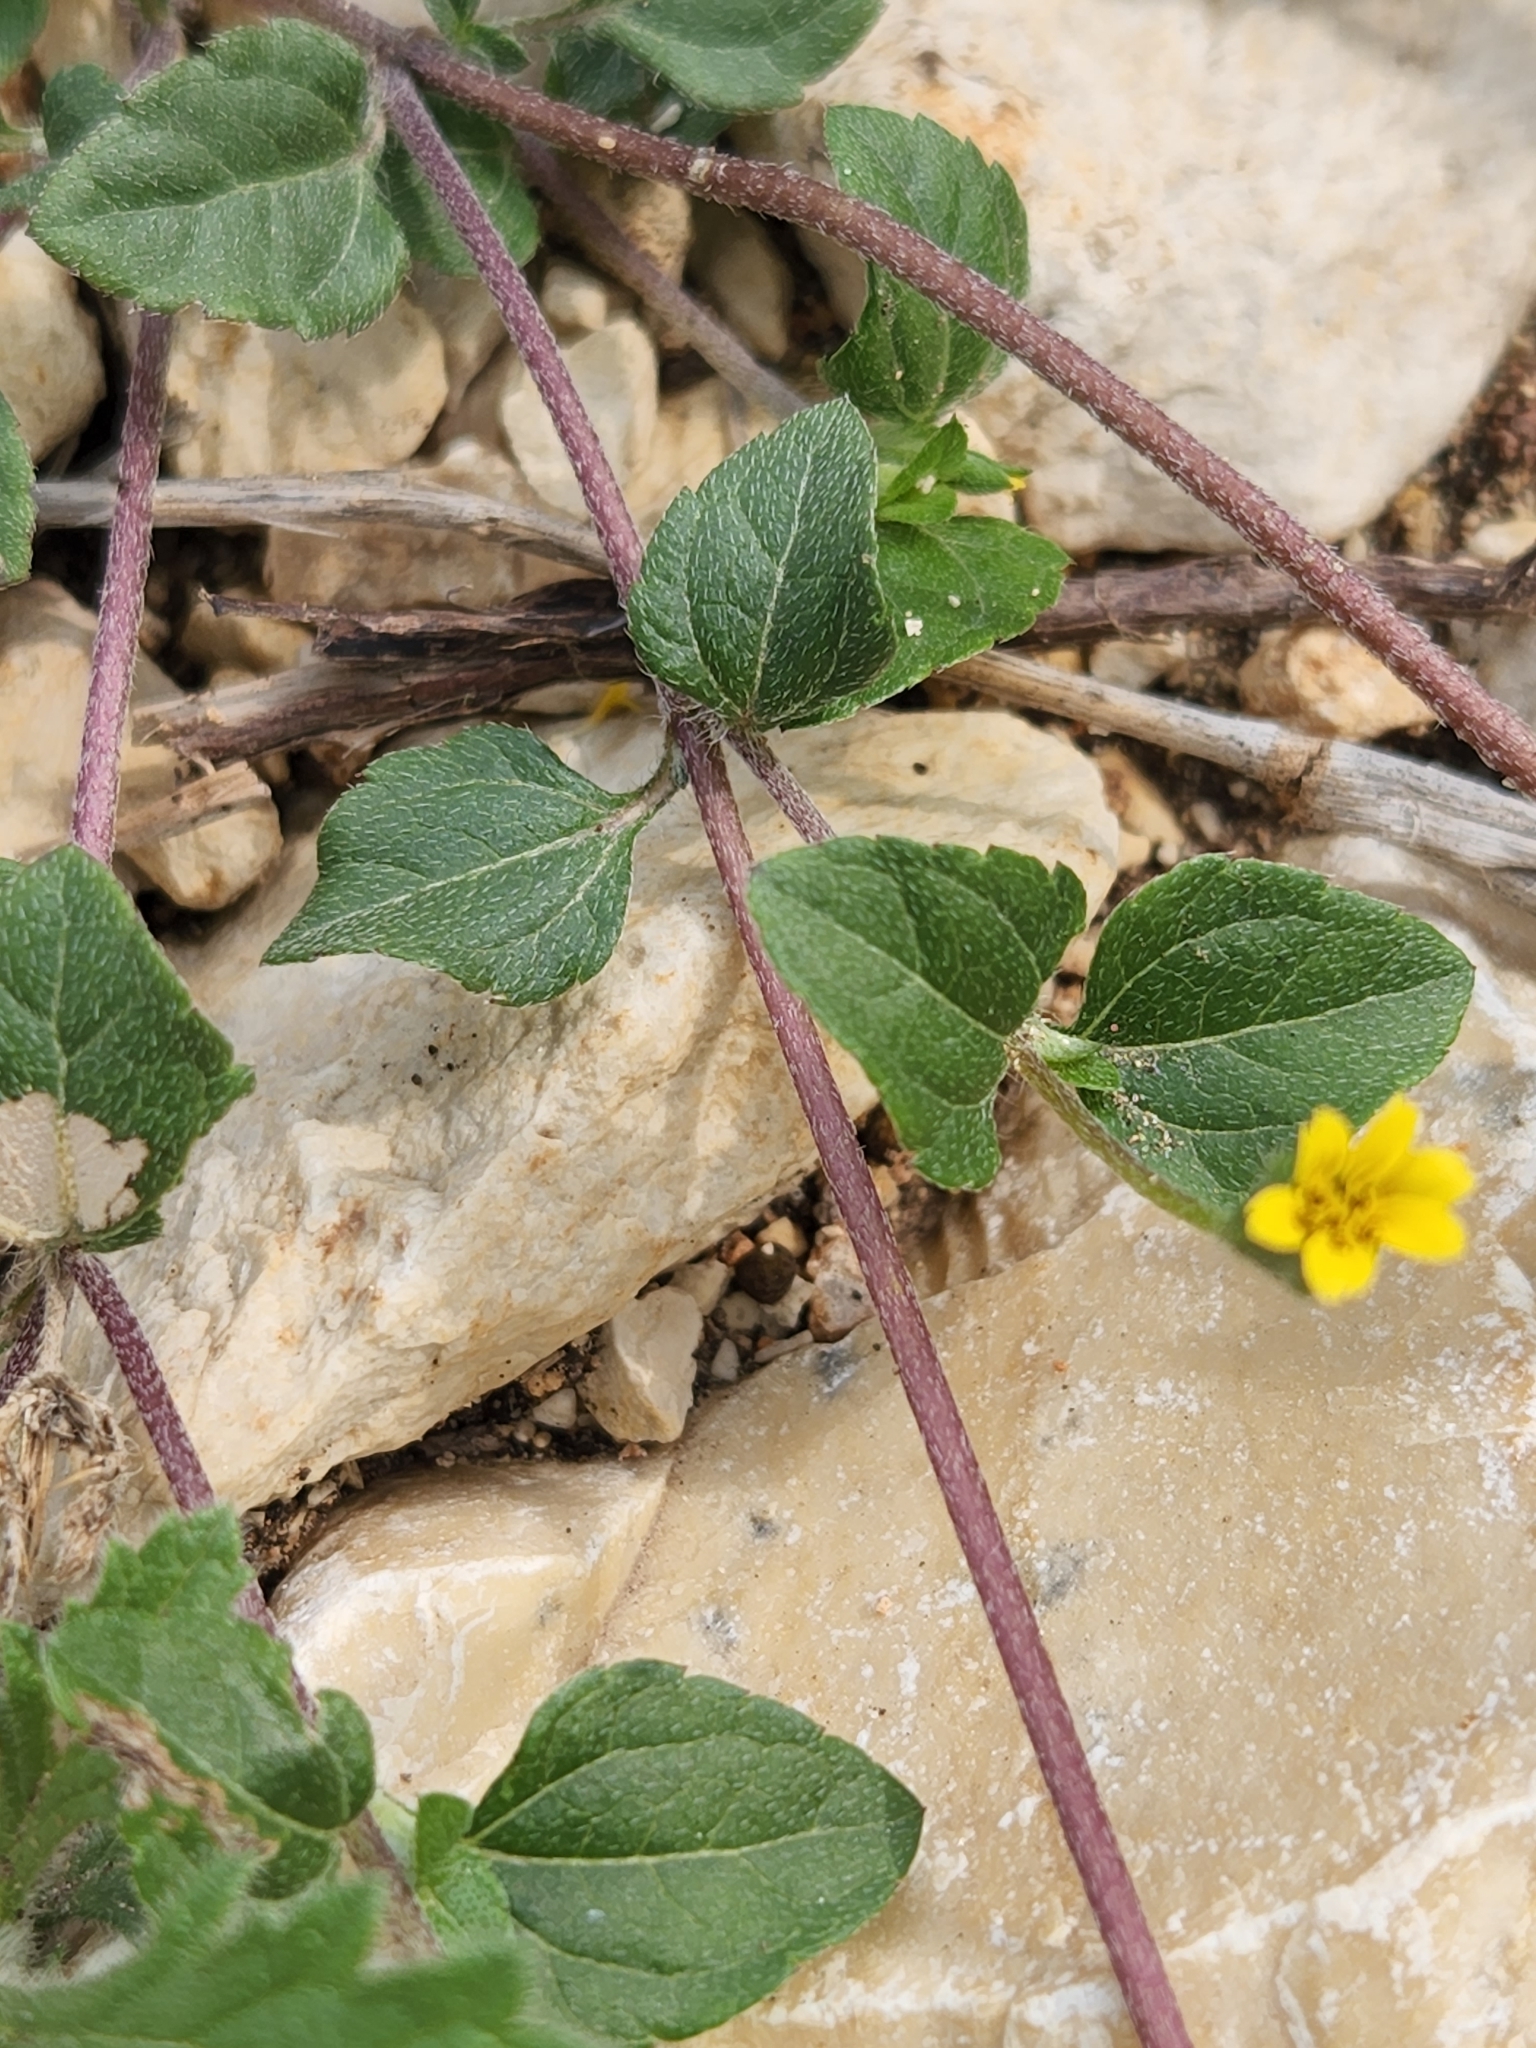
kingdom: Plantae
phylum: Tracheophyta
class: Magnoliopsida
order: Asterales
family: Asteraceae
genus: Calyptocarpus
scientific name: Calyptocarpus vialis
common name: Straggler daisy
